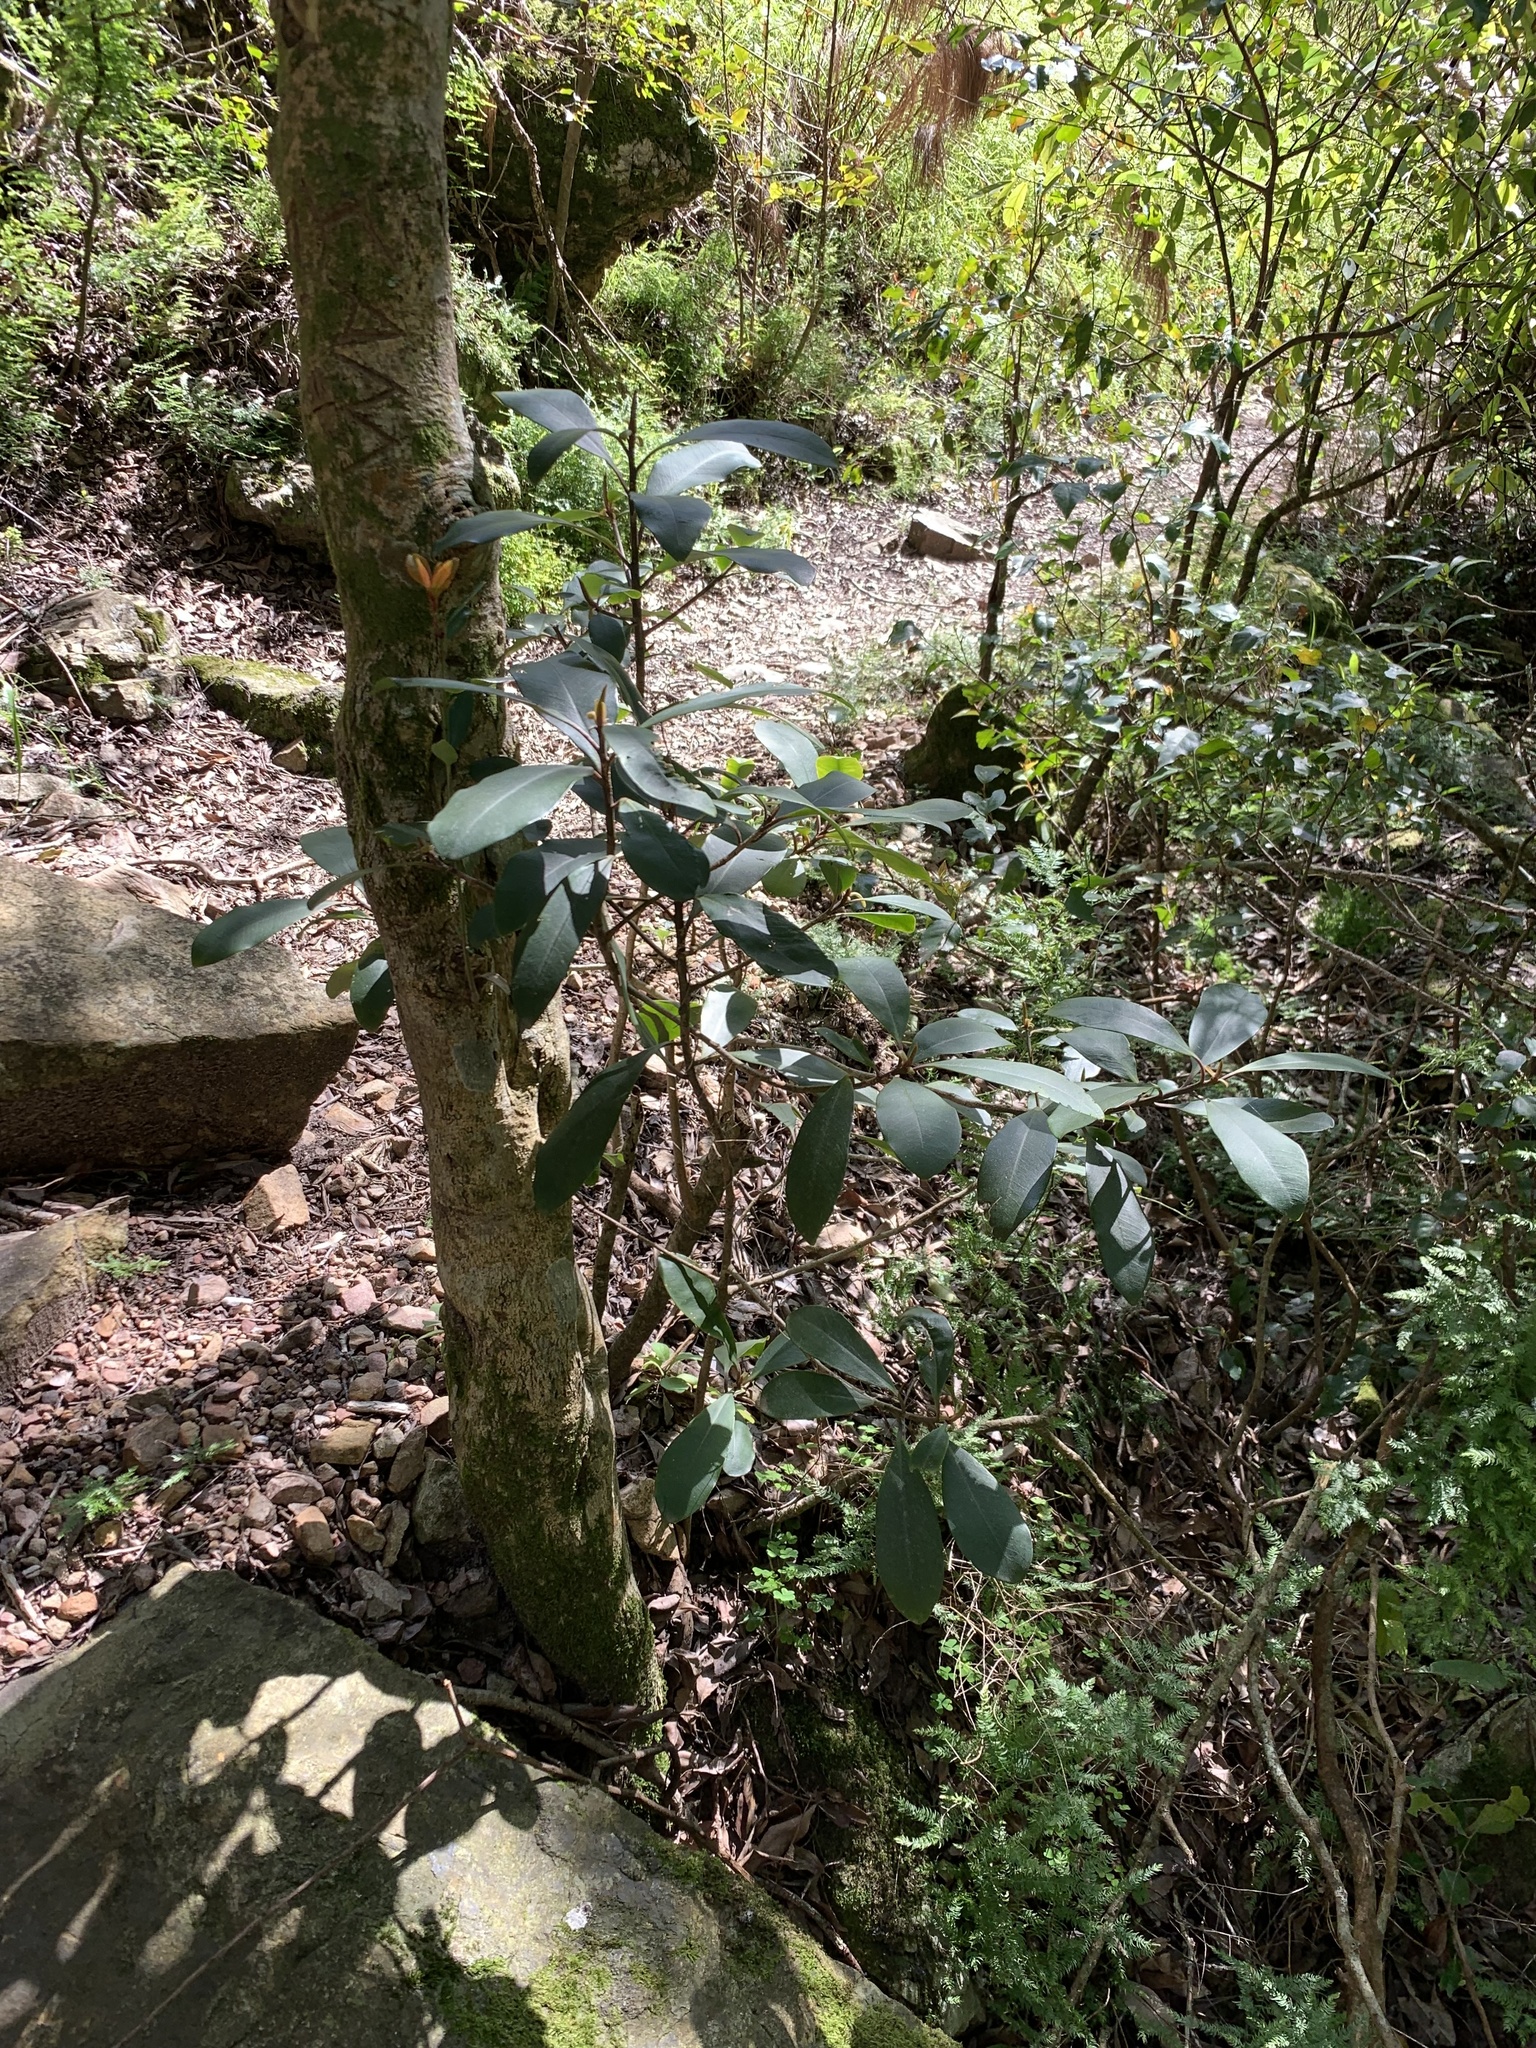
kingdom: Plantae
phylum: Tracheophyta
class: Magnoliopsida
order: Ericales
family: Primulaceae
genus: Myrsine
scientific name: Myrsine melanophloeos
